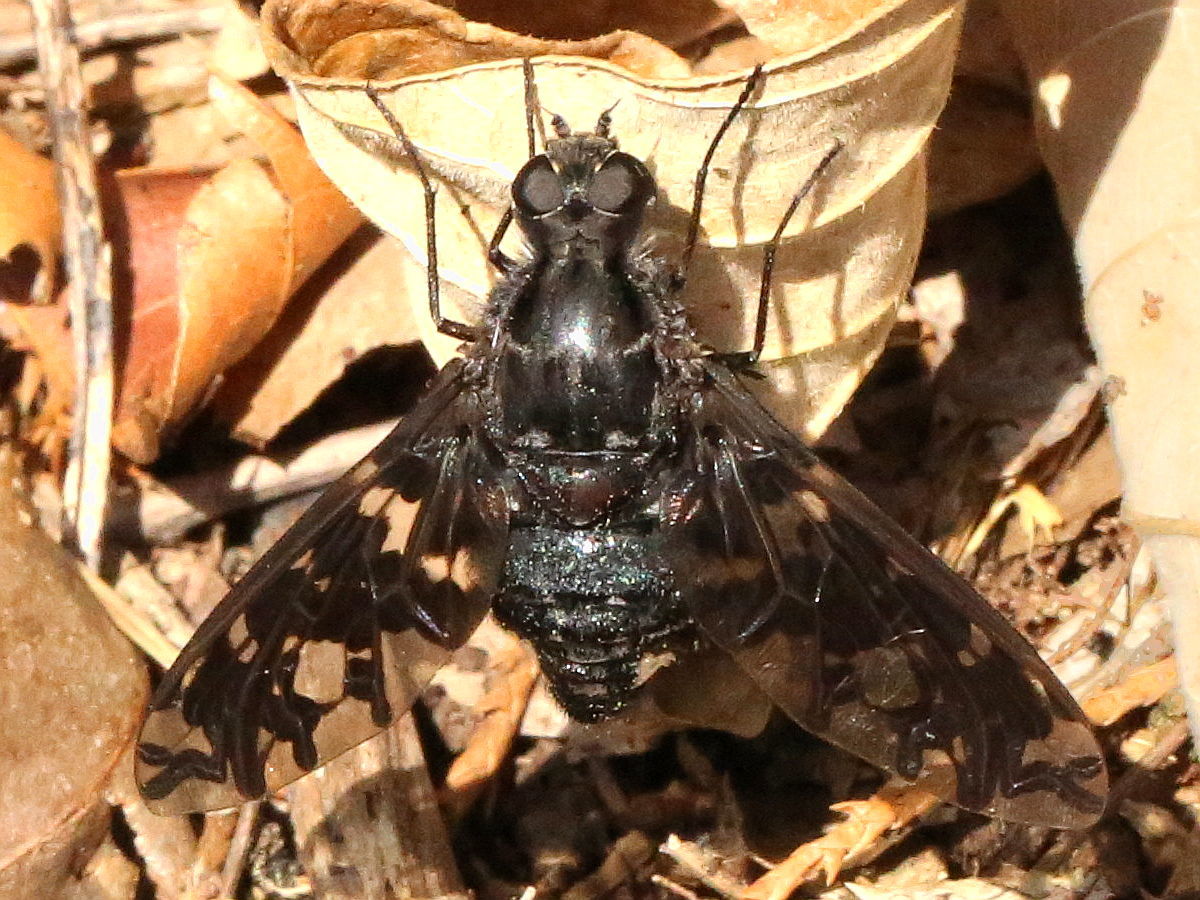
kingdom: Animalia
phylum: Arthropoda
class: Insecta
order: Diptera
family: Bombyliidae
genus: Xenox
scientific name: Xenox tigrinus
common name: Tiger bee fly
